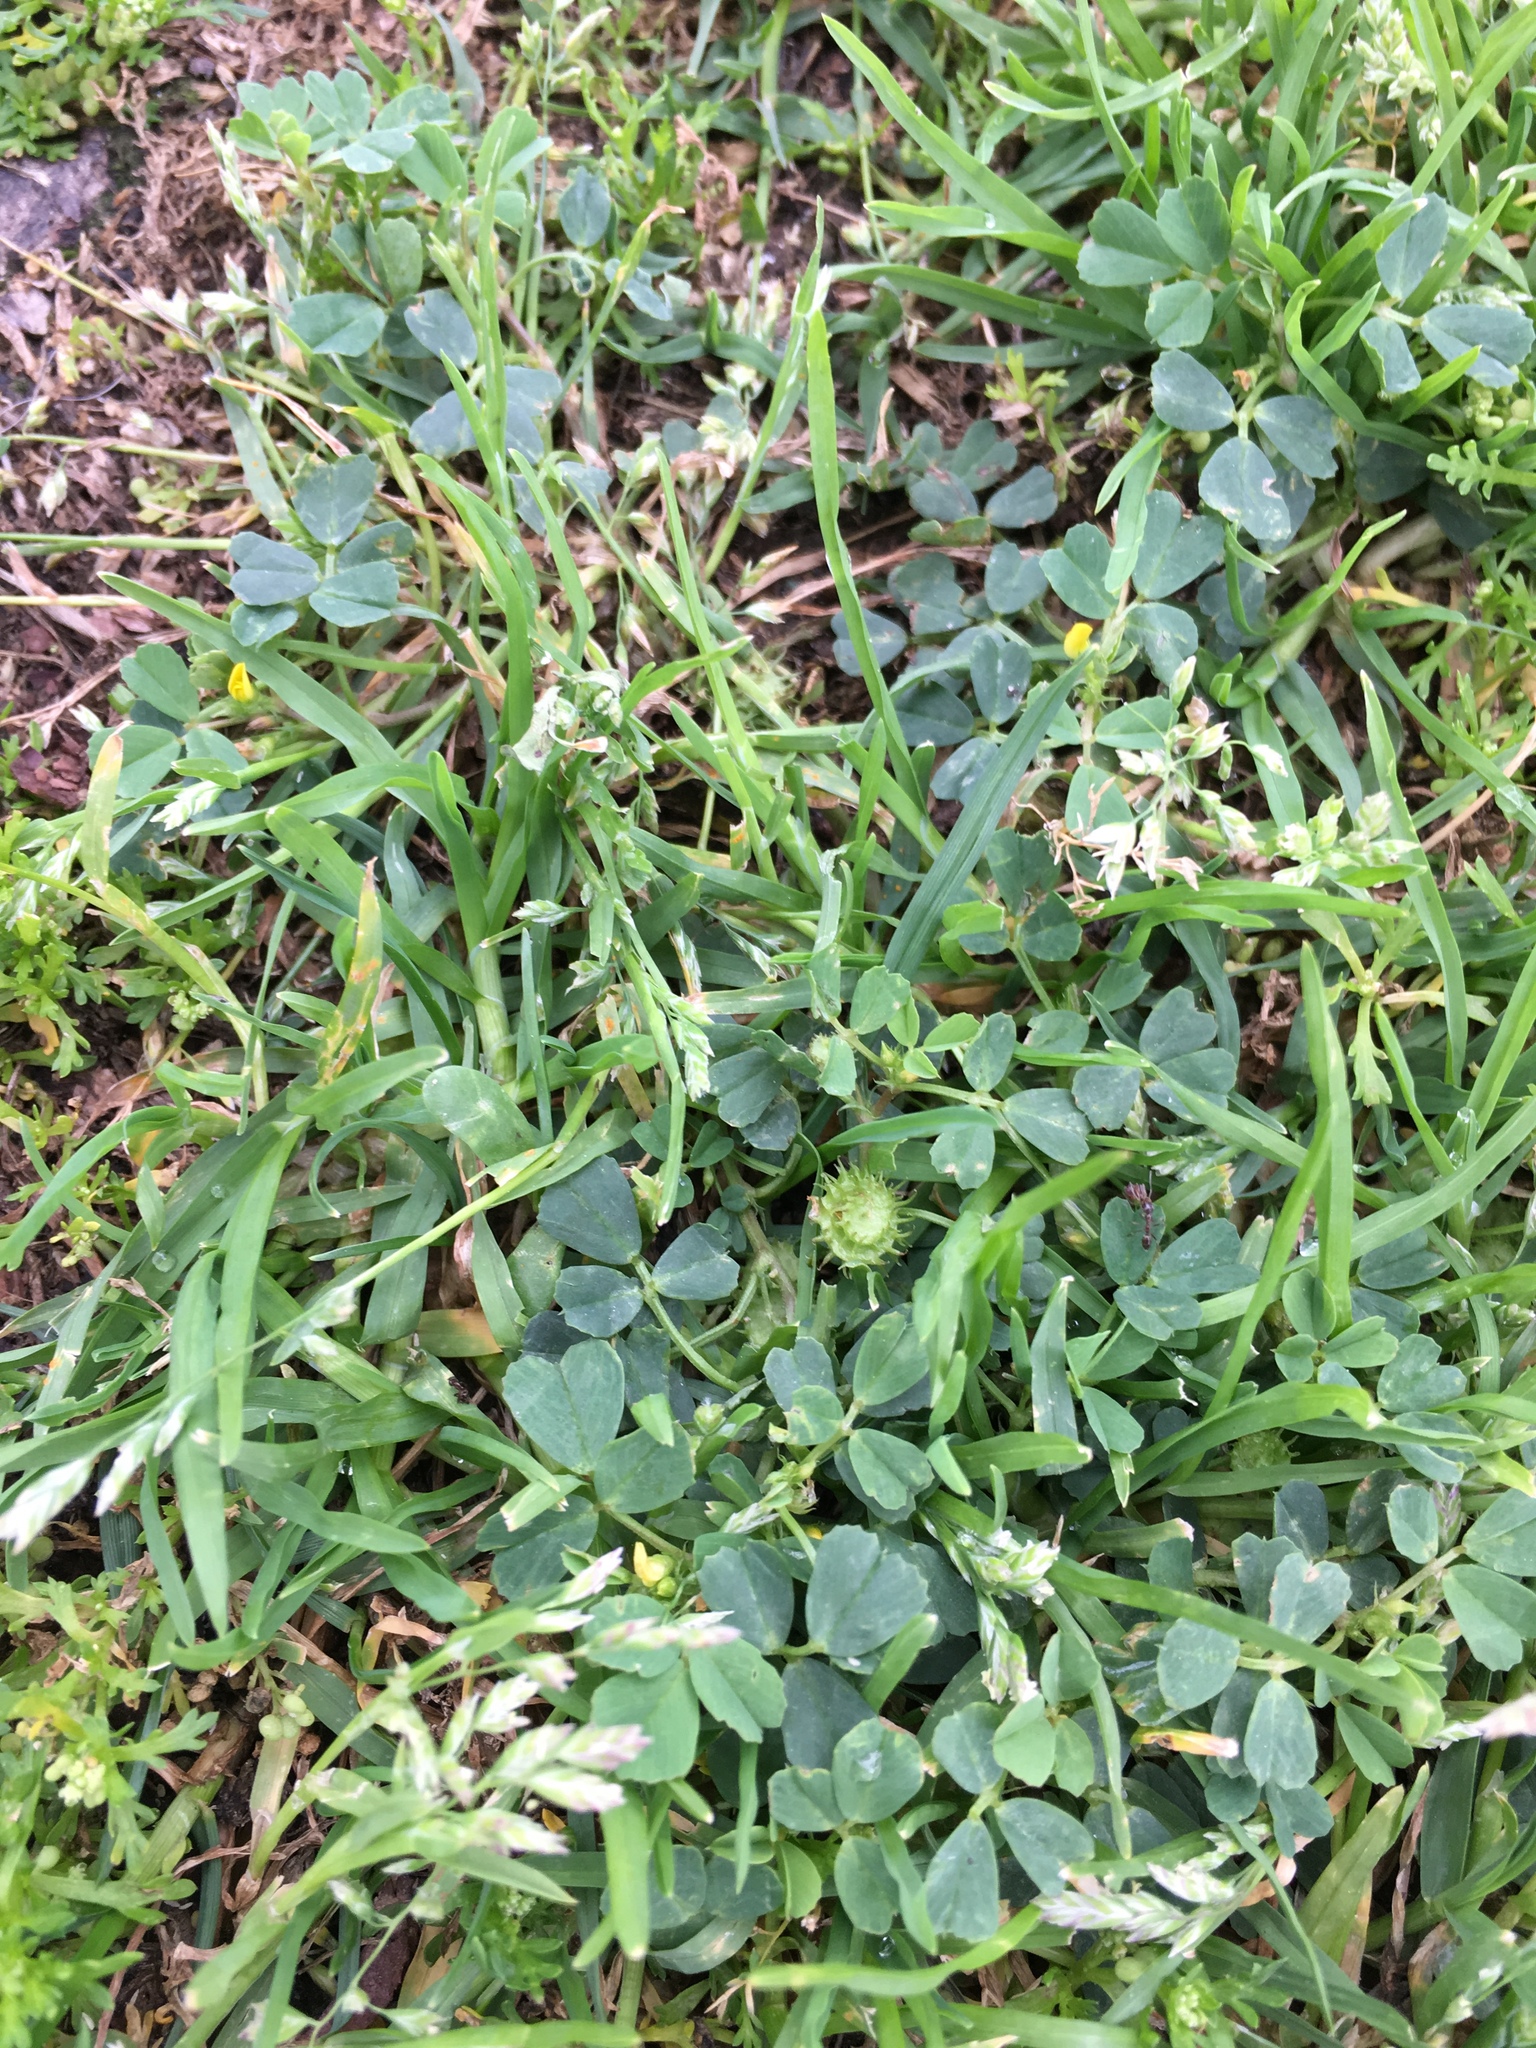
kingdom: Plantae
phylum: Tracheophyta
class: Magnoliopsida
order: Fabales
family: Fabaceae
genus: Medicago
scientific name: Medicago polymorpha
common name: Burclover
